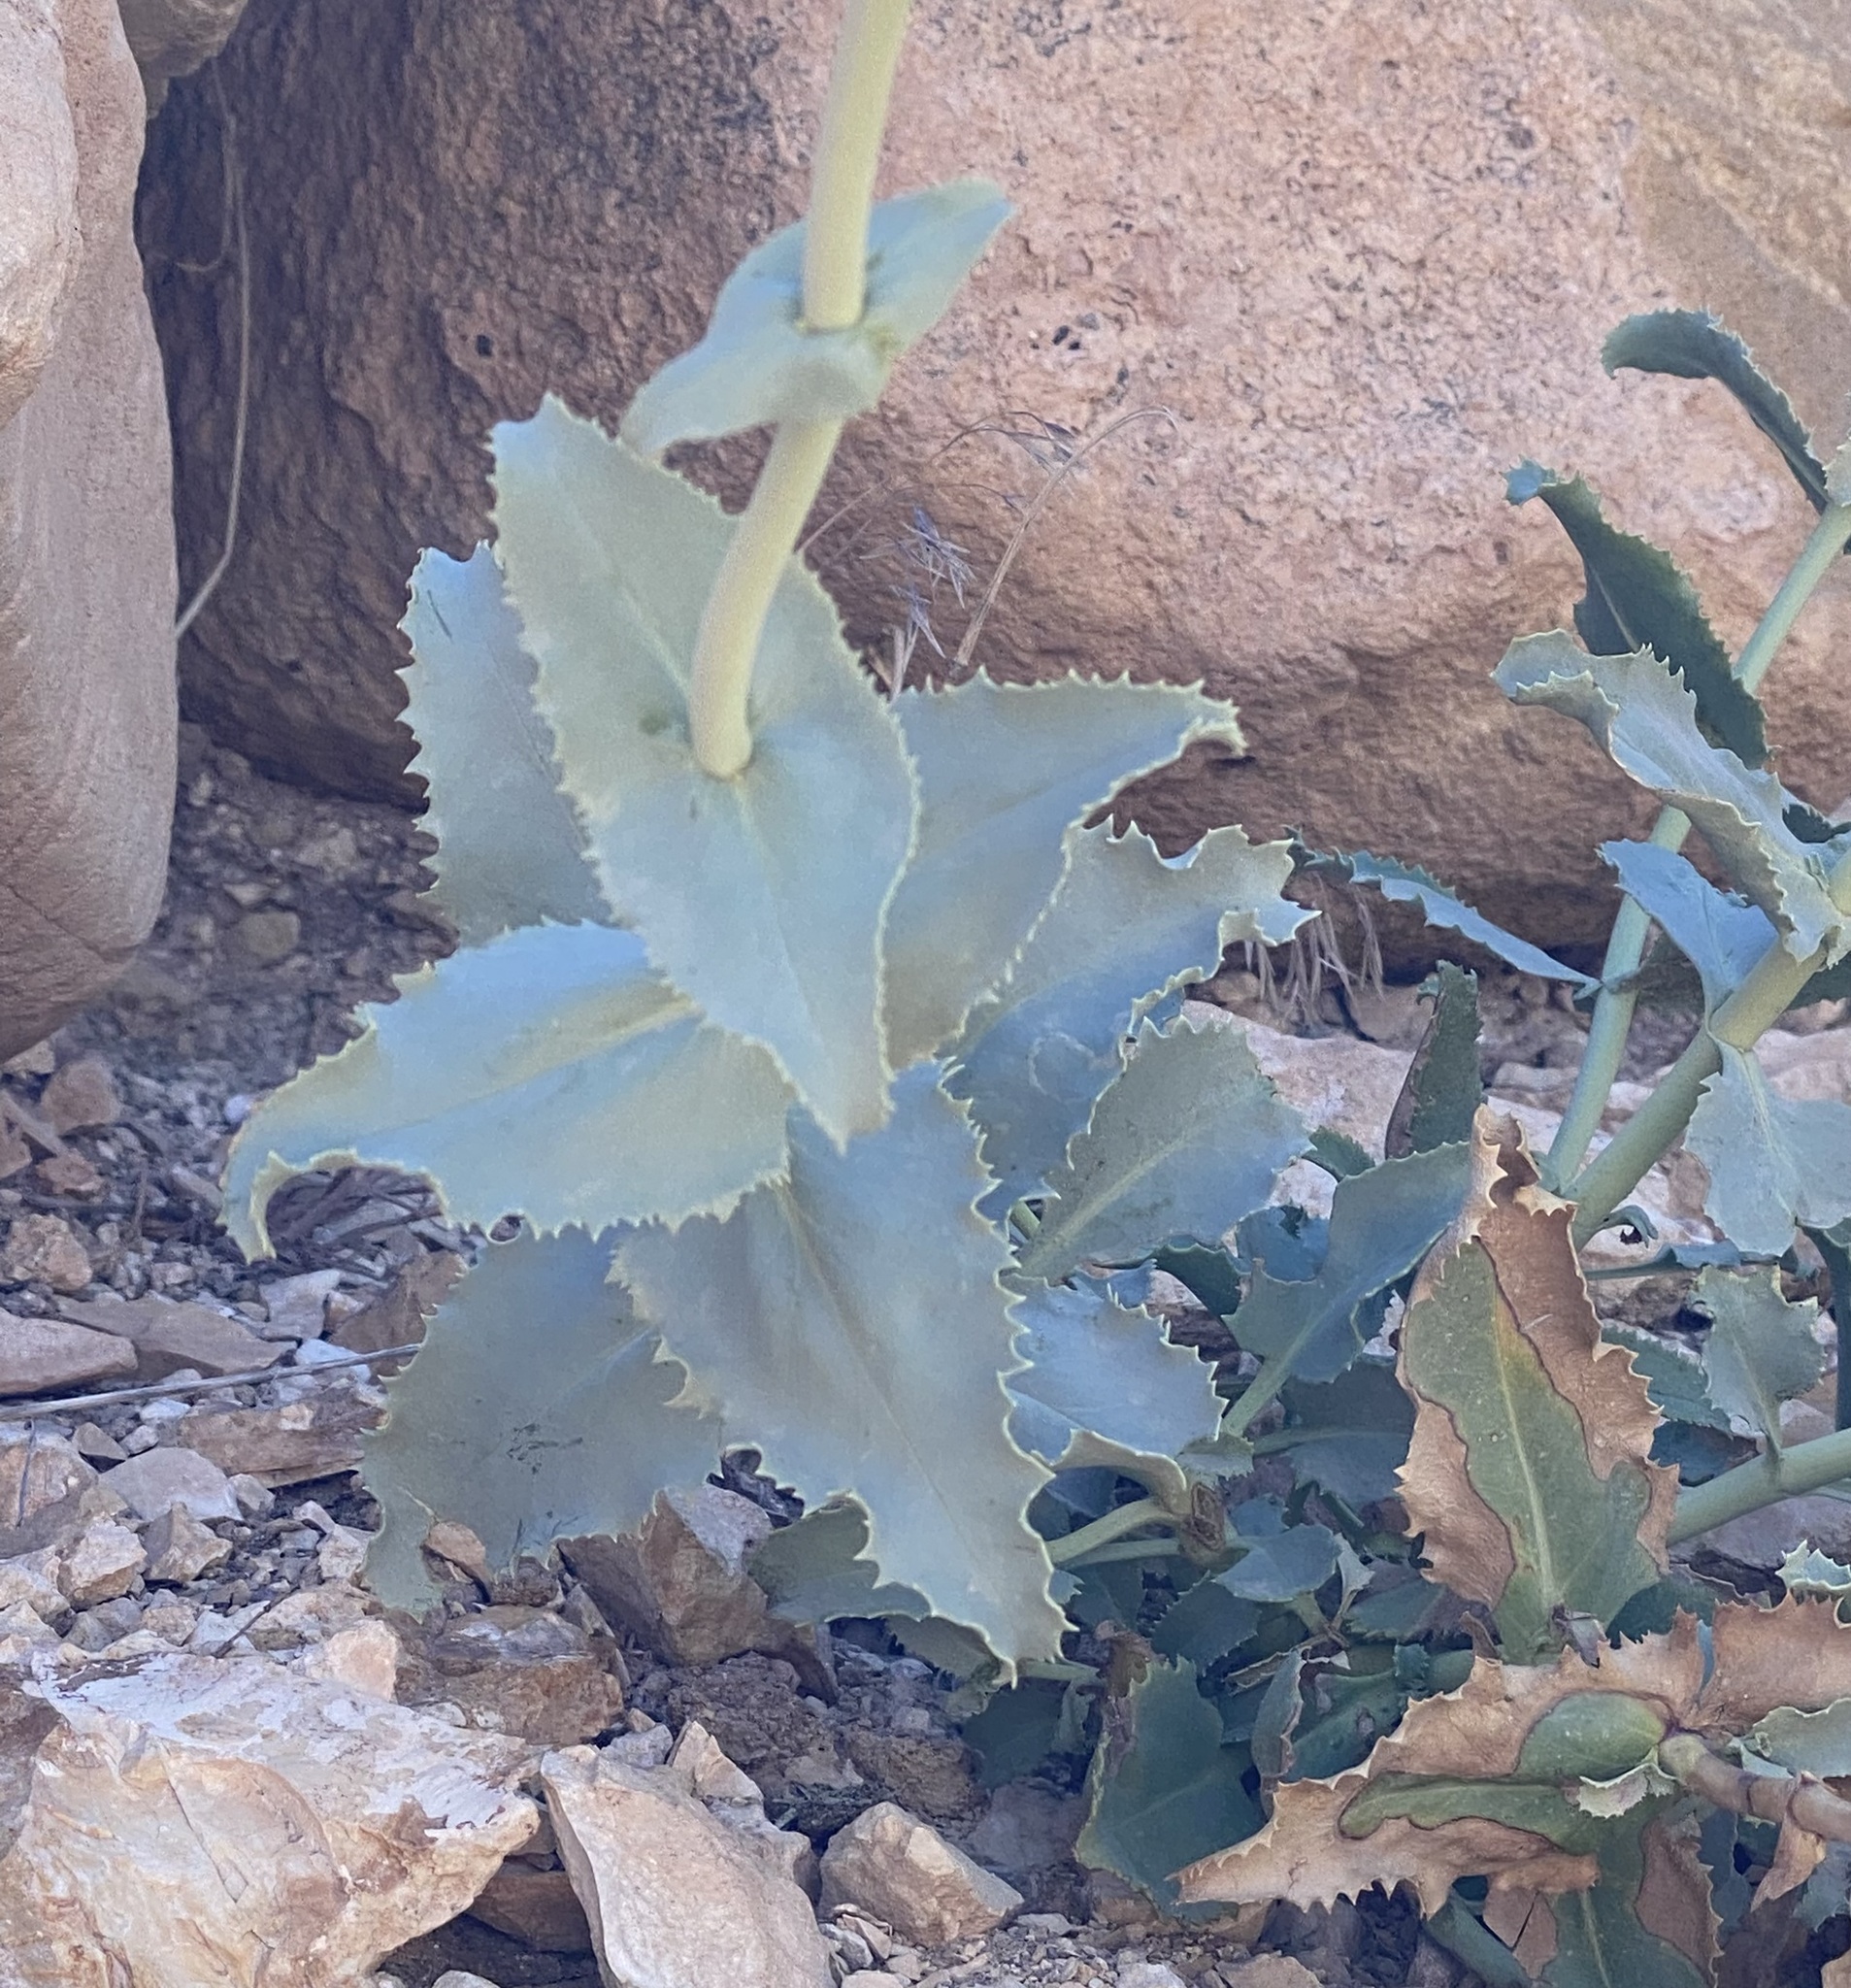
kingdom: Plantae
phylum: Tracheophyta
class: Magnoliopsida
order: Lamiales
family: Plantaginaceae
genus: Penstemon
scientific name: Penstemon palmeri
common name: Palmer penstemon
